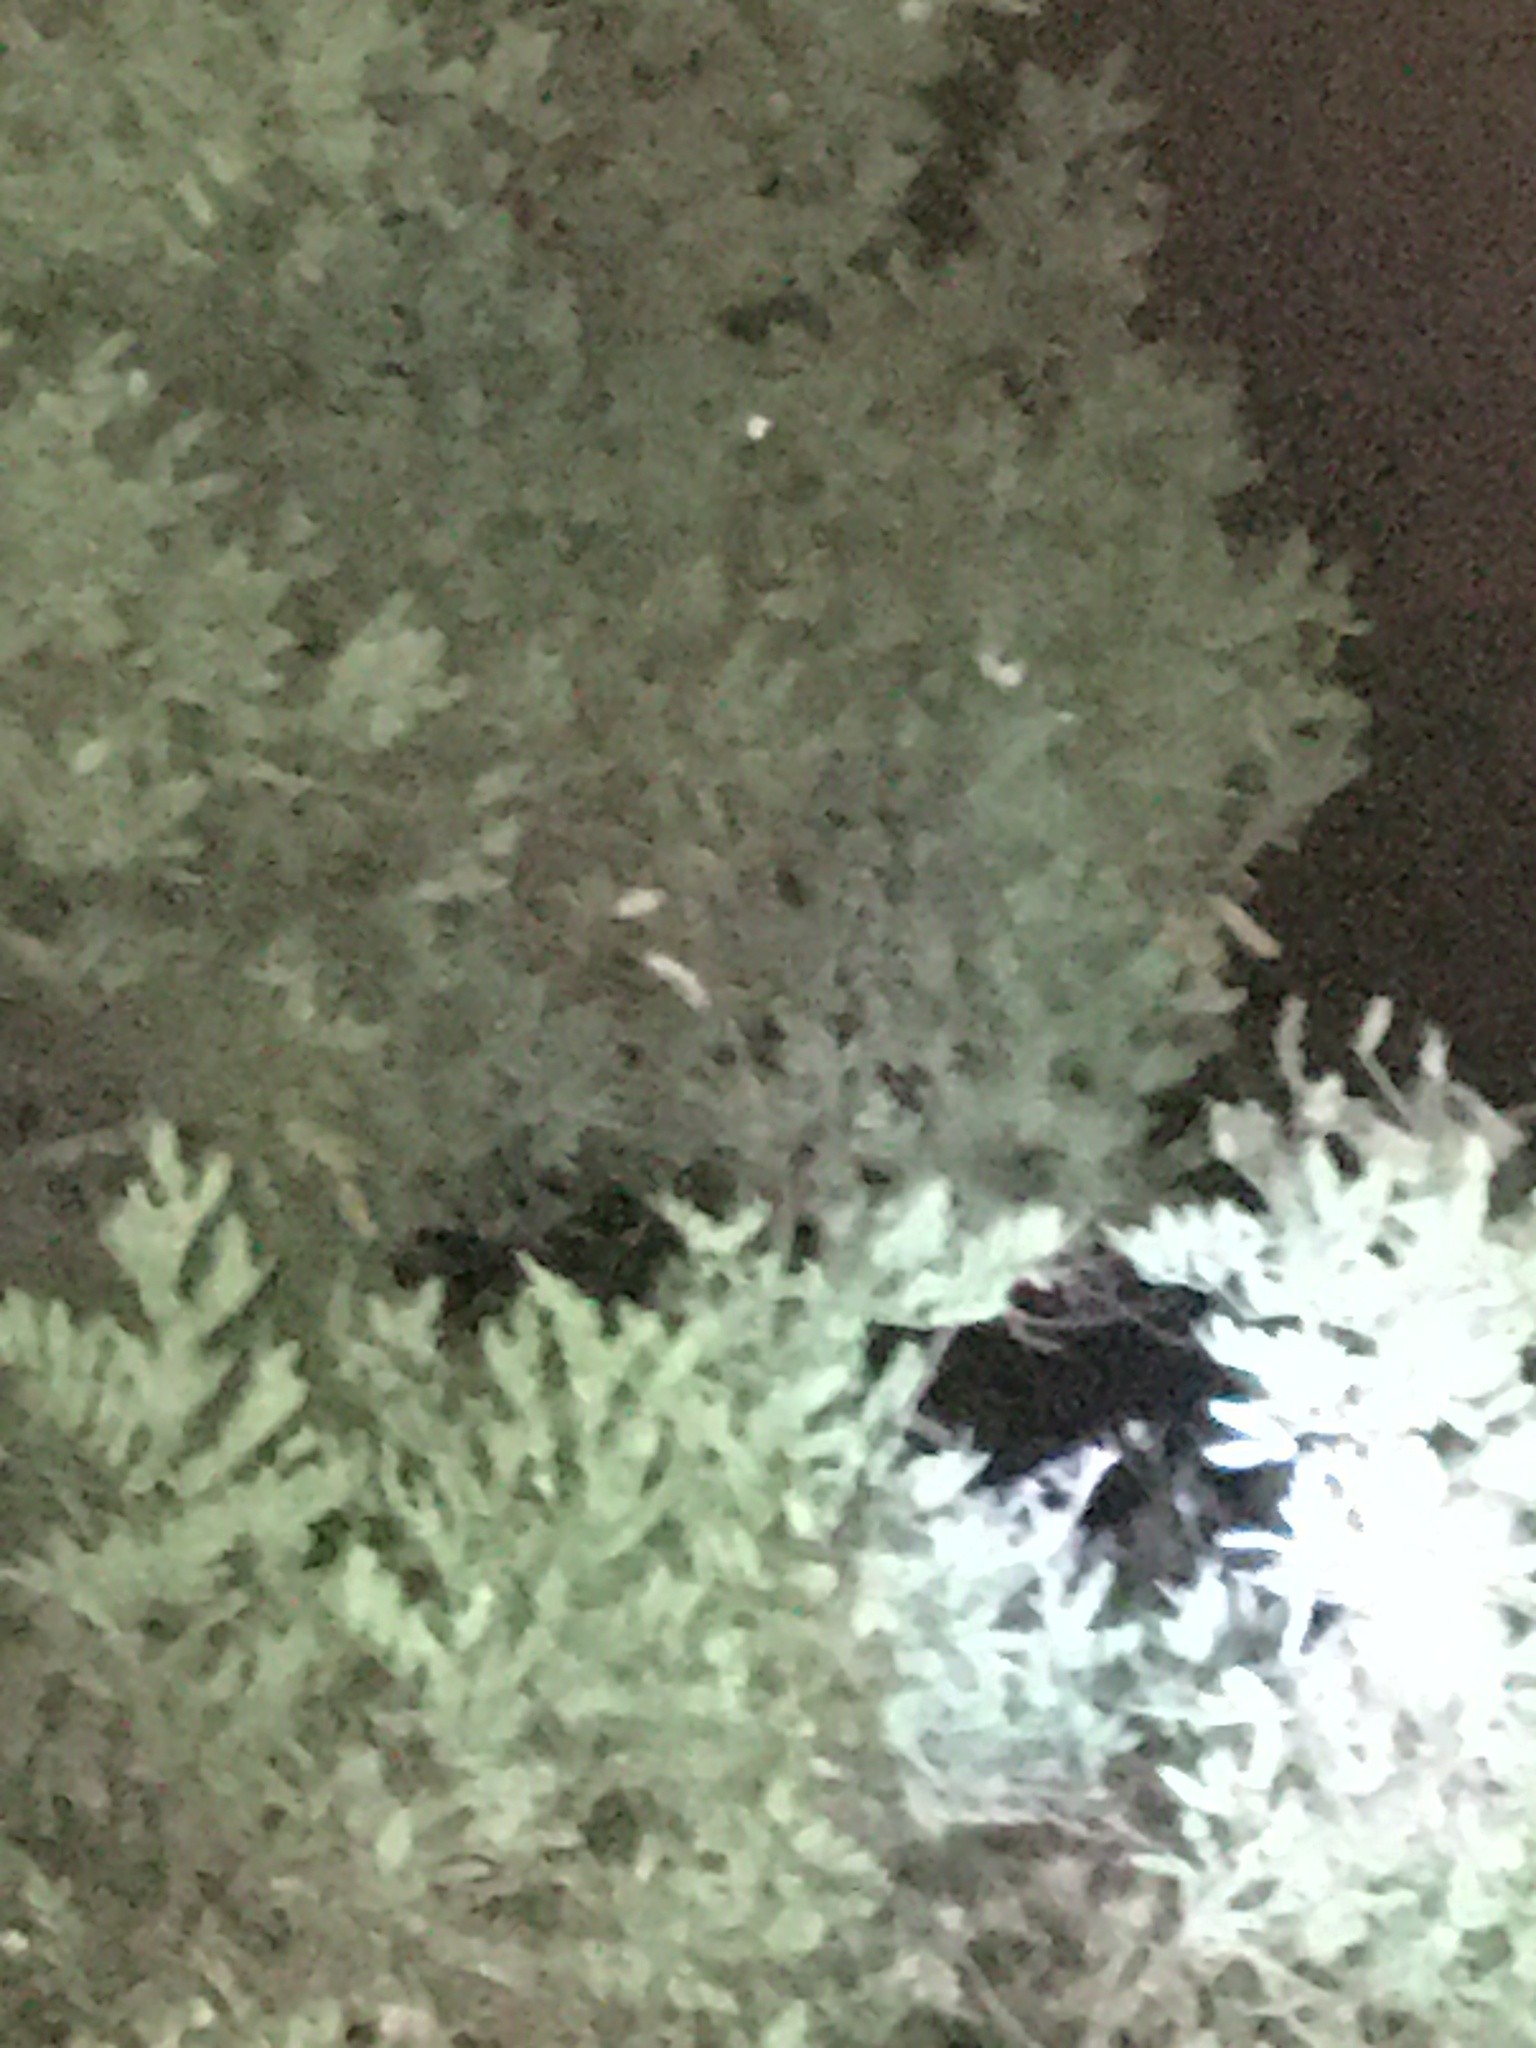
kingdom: Animalia
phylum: Chordata
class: Squamata
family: Chamaeleonidae
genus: Bradypodion
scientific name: Bradypodion pumilum
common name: Cape dwarf chameleon
